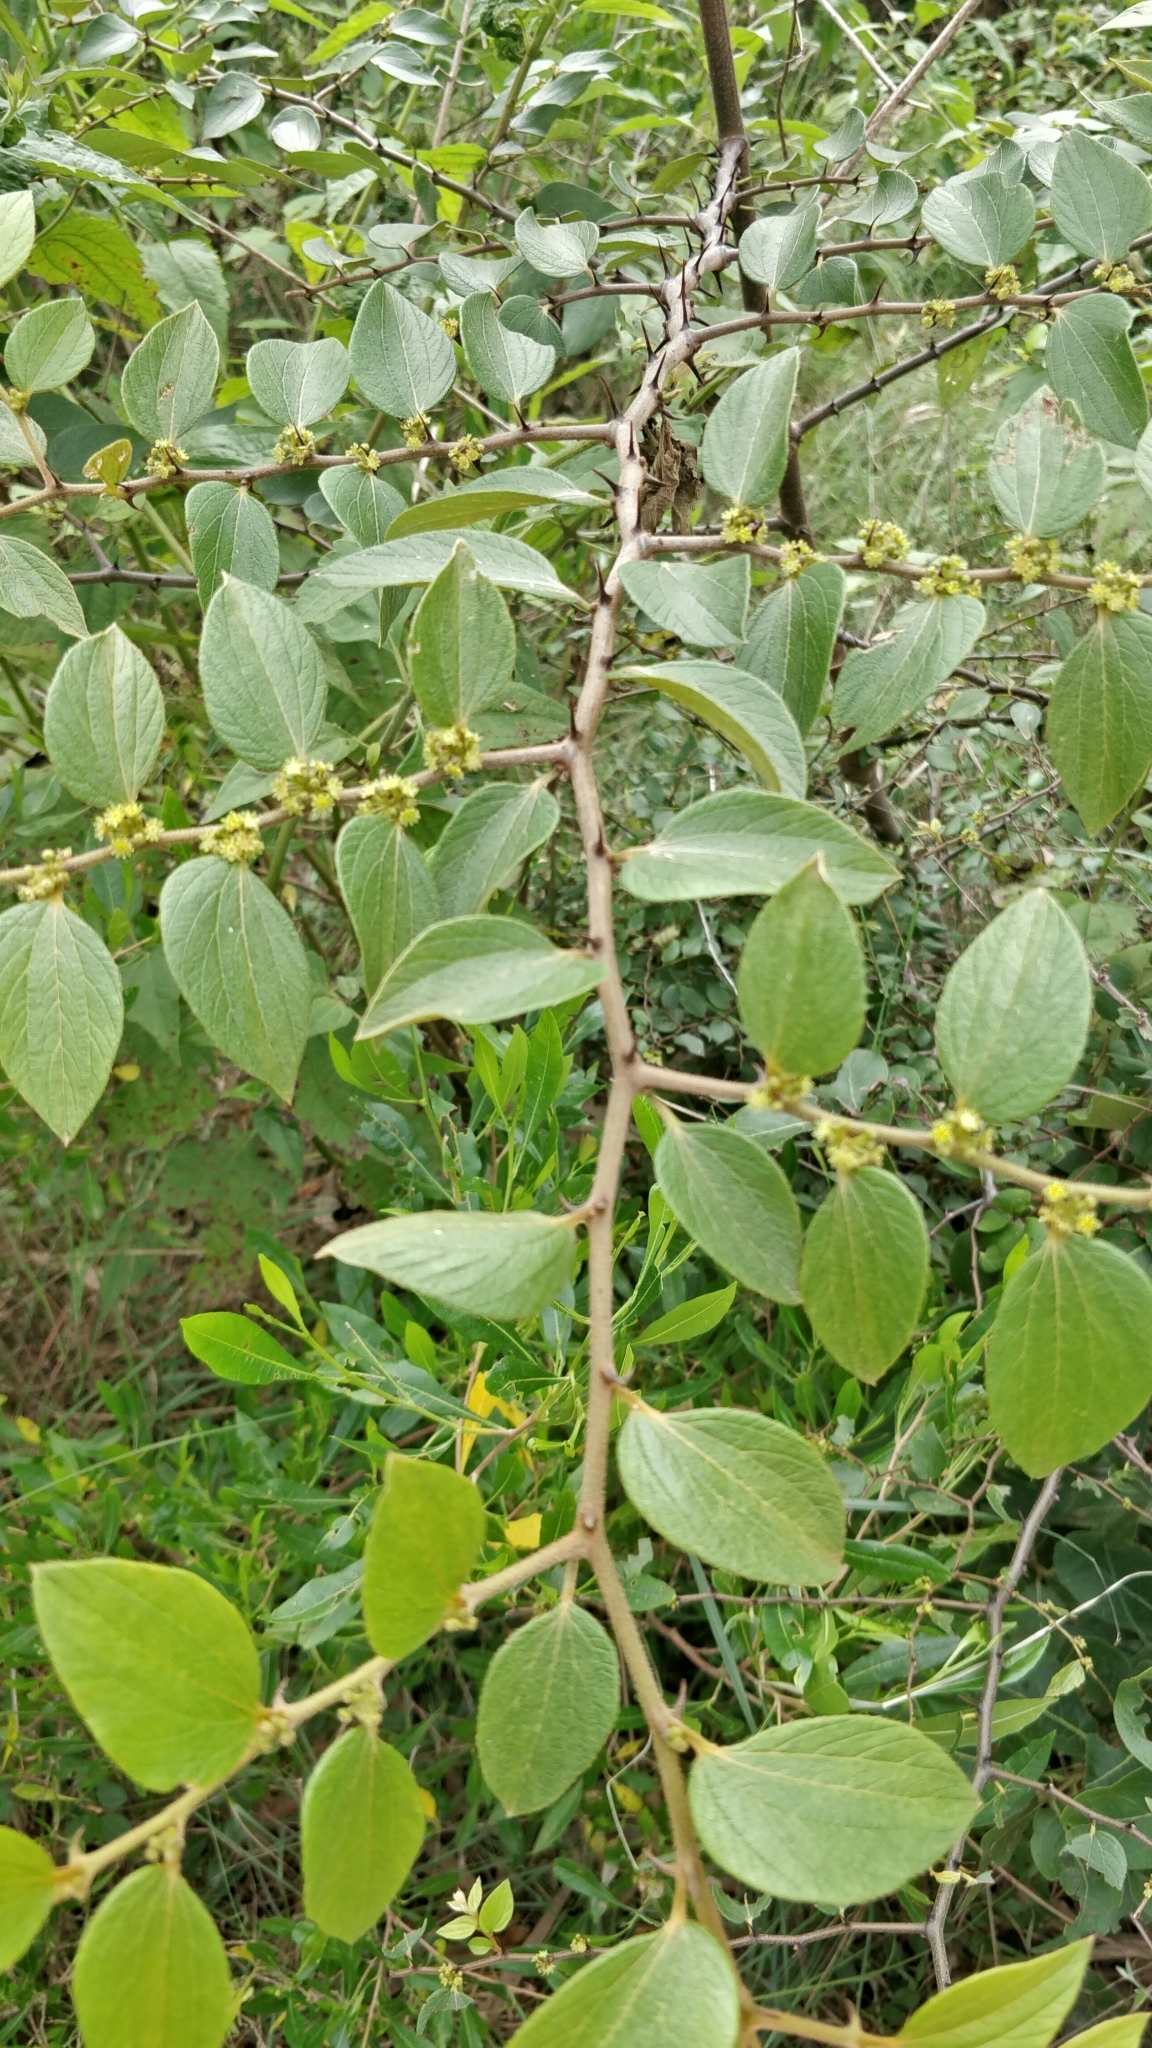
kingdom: Plantae
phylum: Tracheophyta
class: Magnoliopsida
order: Rosales
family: Rhamnaceae
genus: Ziziphus
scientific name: Ziziphus oenopolia
